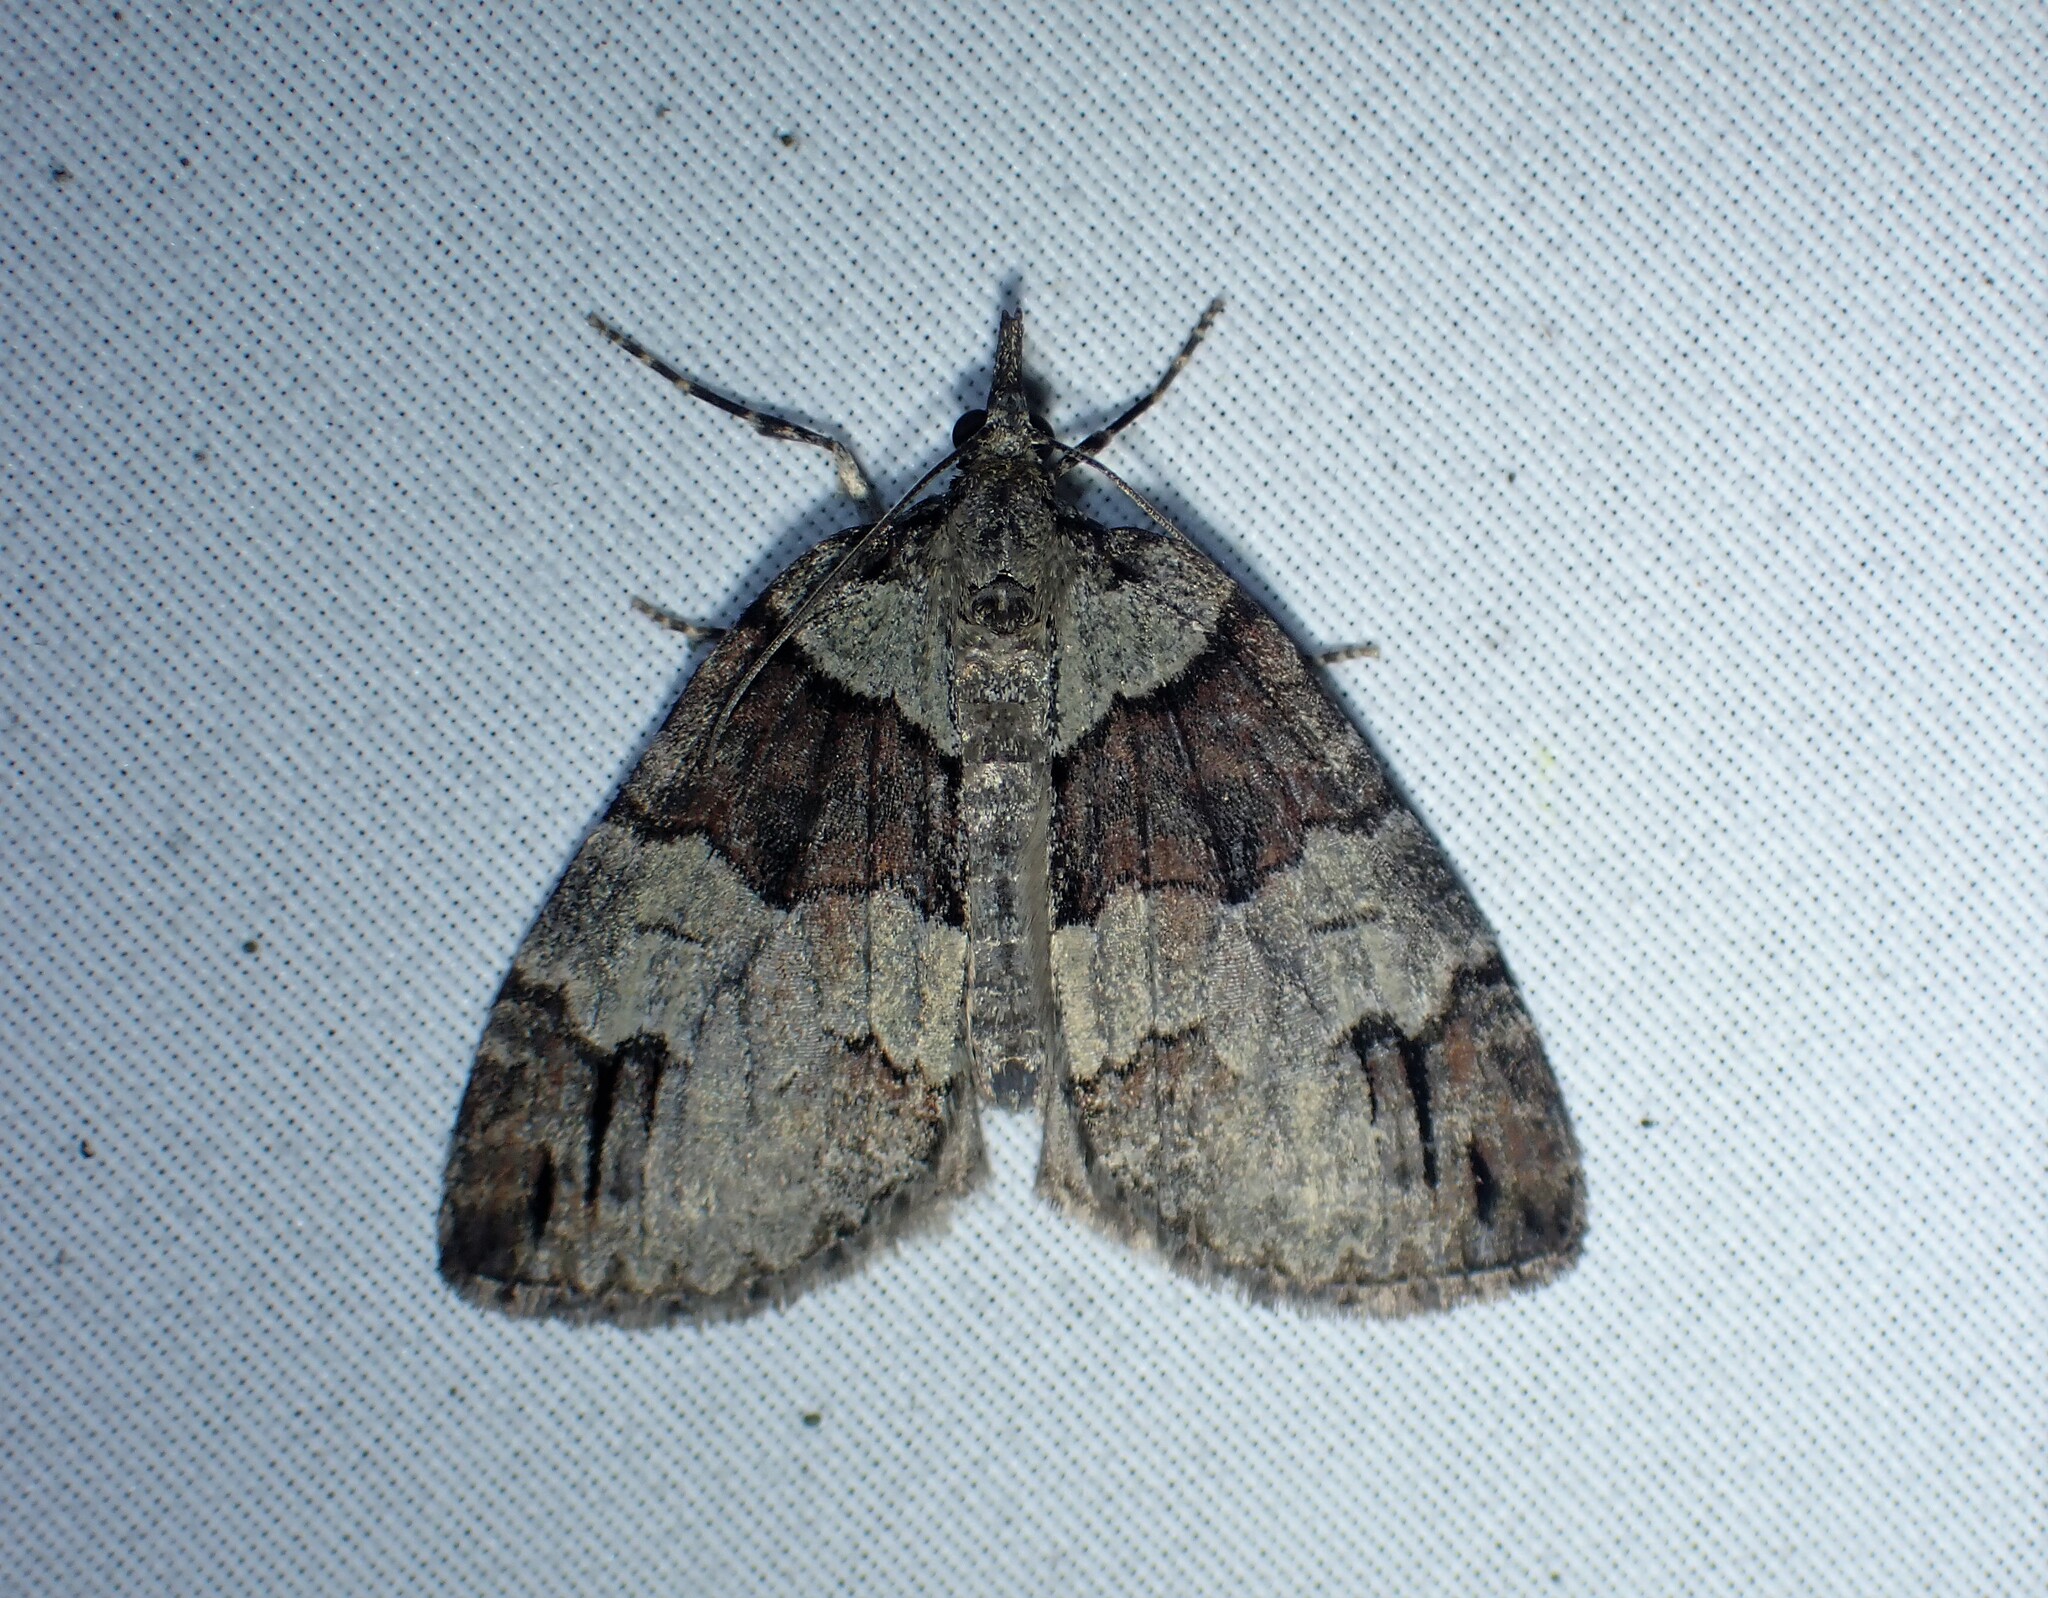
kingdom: Animalia
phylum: Arthropoda
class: Insecta
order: Lepidoptera
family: Geometridae
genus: Hydriomena
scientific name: Hydriomena ruberata
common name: Ruddy highflyer
